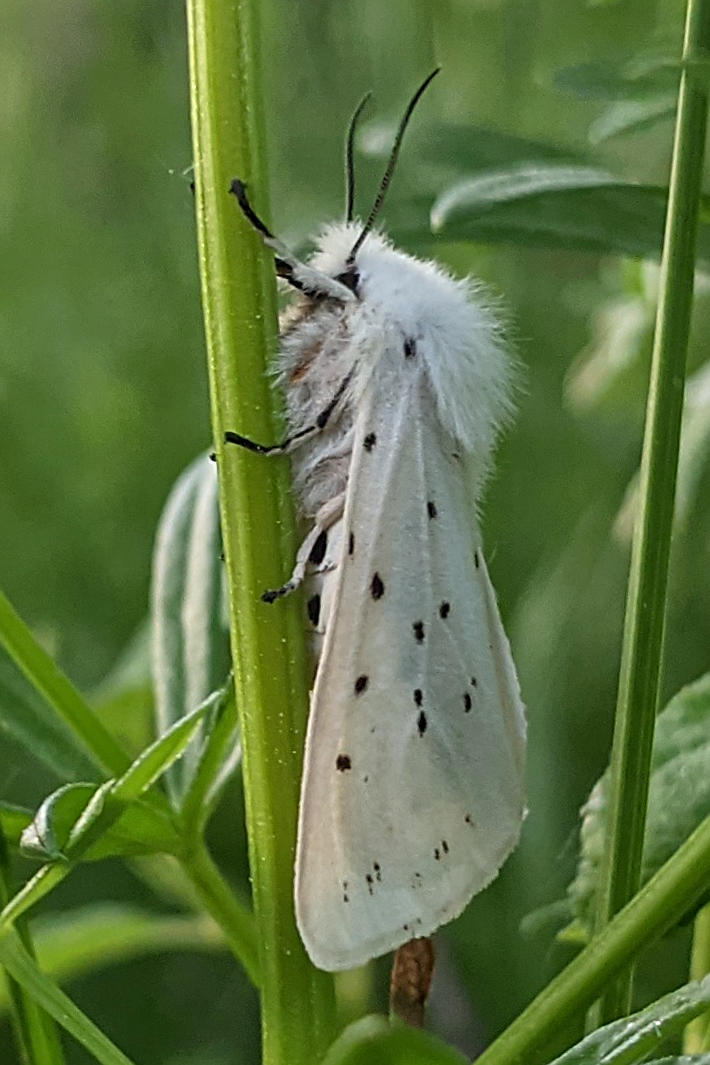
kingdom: Animalia
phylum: Arthropoda
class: Insecta
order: Lepidoptera
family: Erebidae
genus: Spilosoma
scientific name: Spilosoma lubricipeda
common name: White ermine
